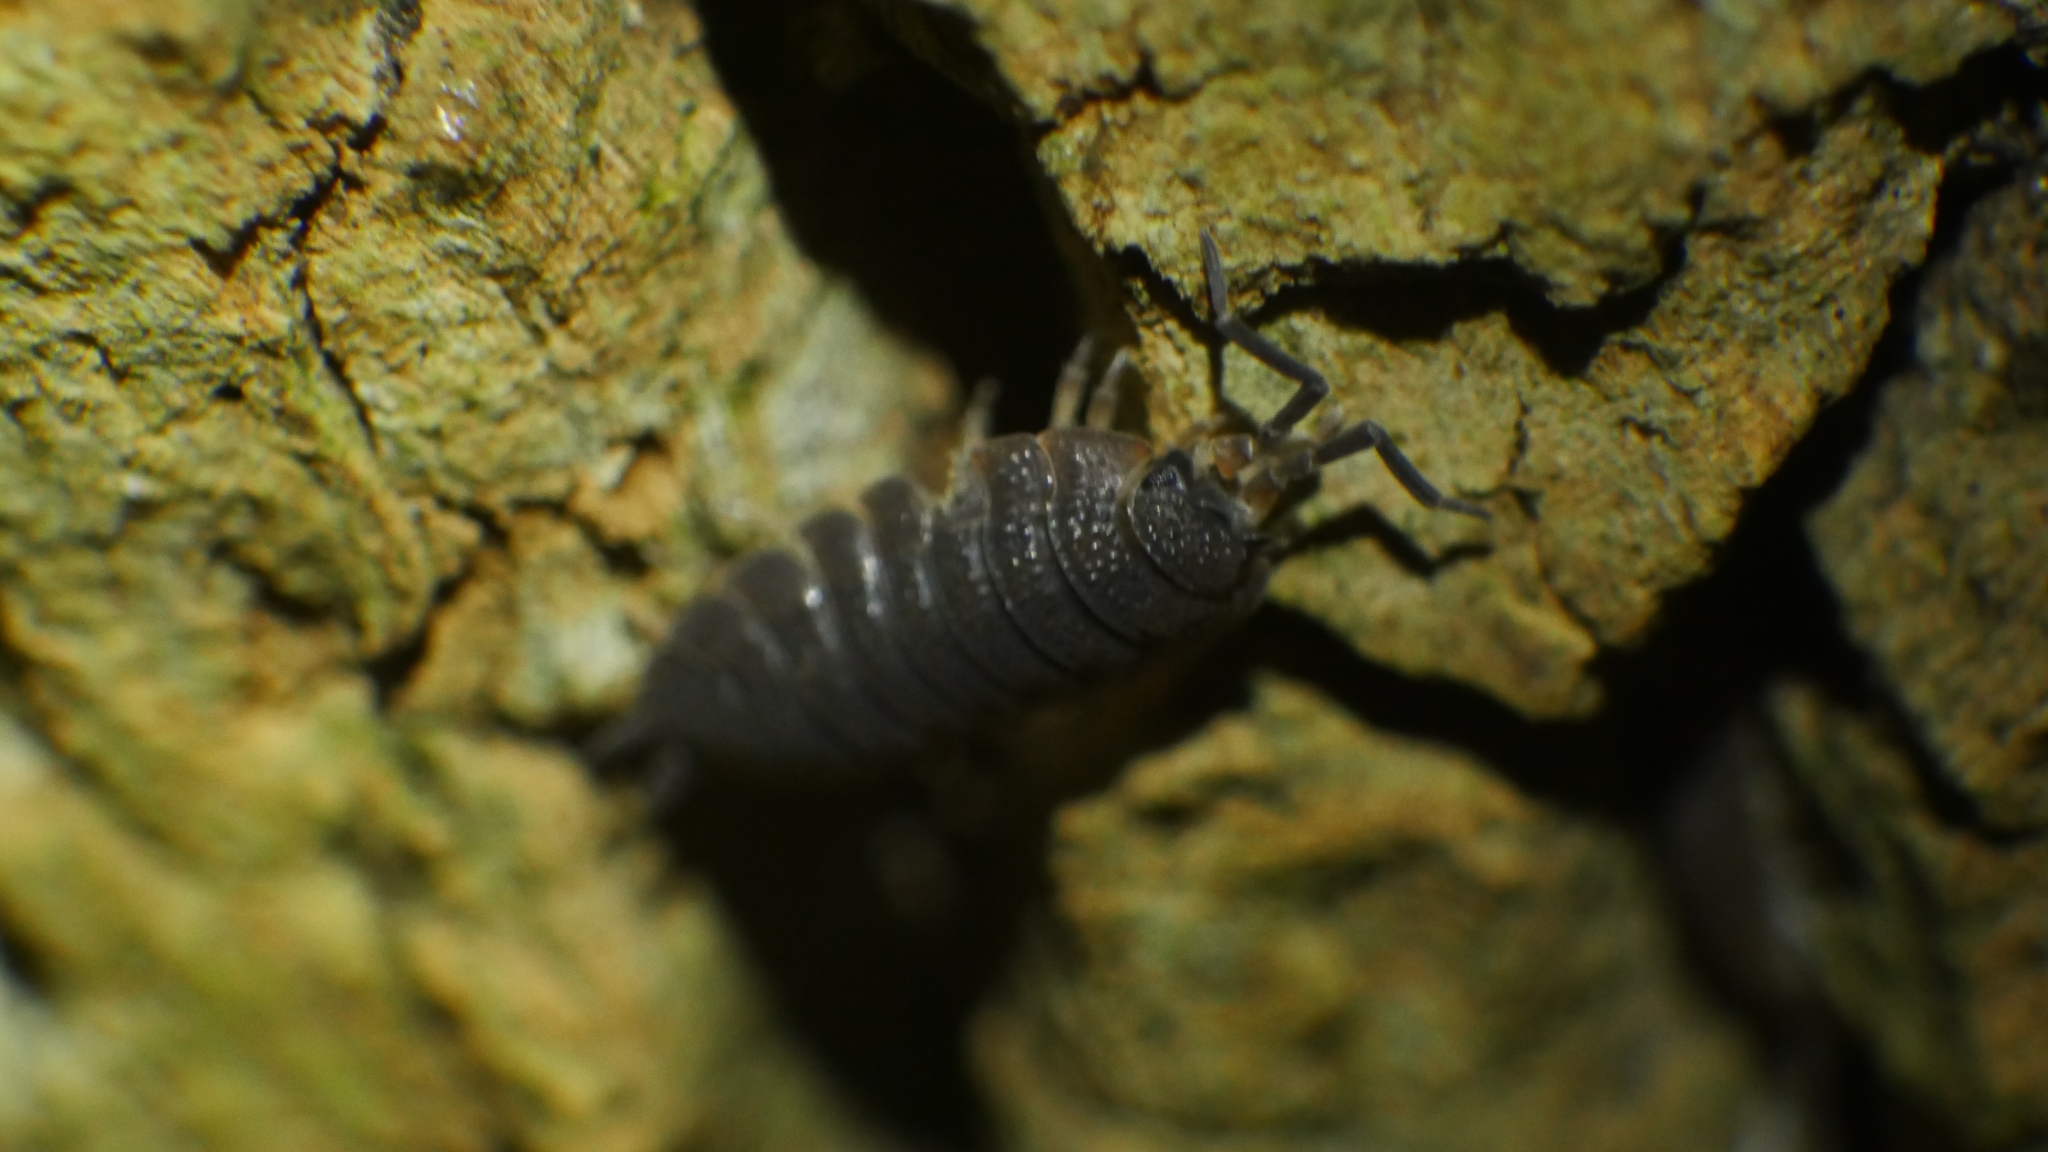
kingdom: Animalia
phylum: Arthropoda
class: Malacostraca
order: Isopoda
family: Porcellionidae
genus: Porcellio
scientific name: Porcellio scaber
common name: Common rough woodlouse
